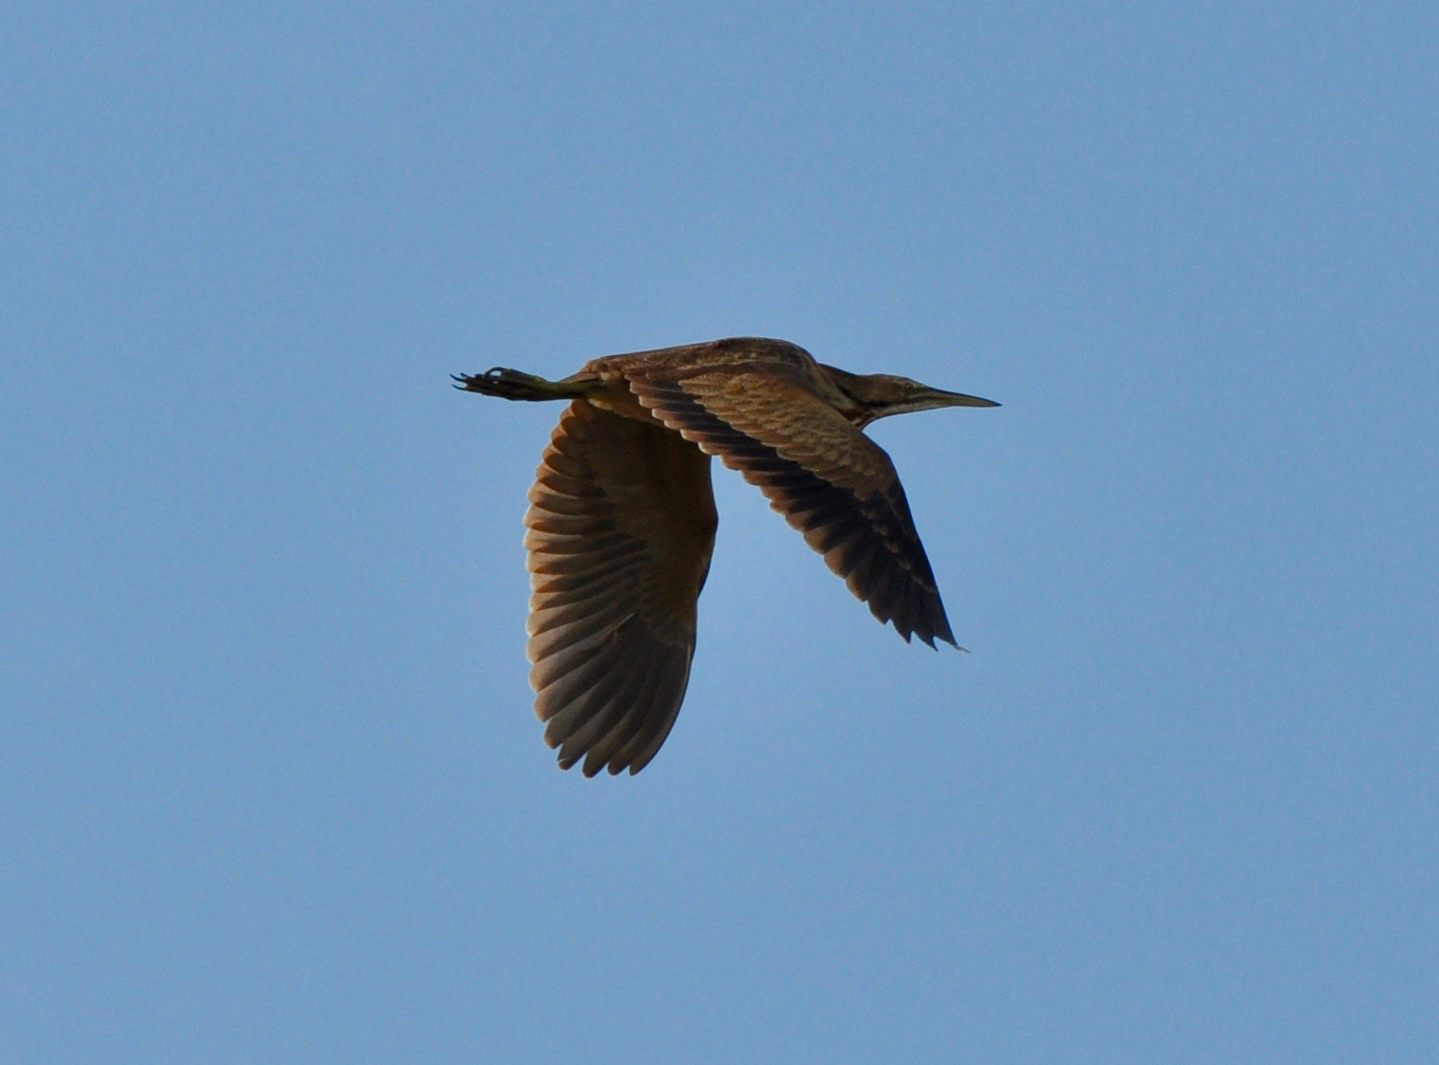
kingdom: Animalia
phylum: Chordata
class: Aves
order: Pelecaniformes
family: Ardeidae
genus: Botaurus
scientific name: Botaurus lentiginosus
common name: American bittern
